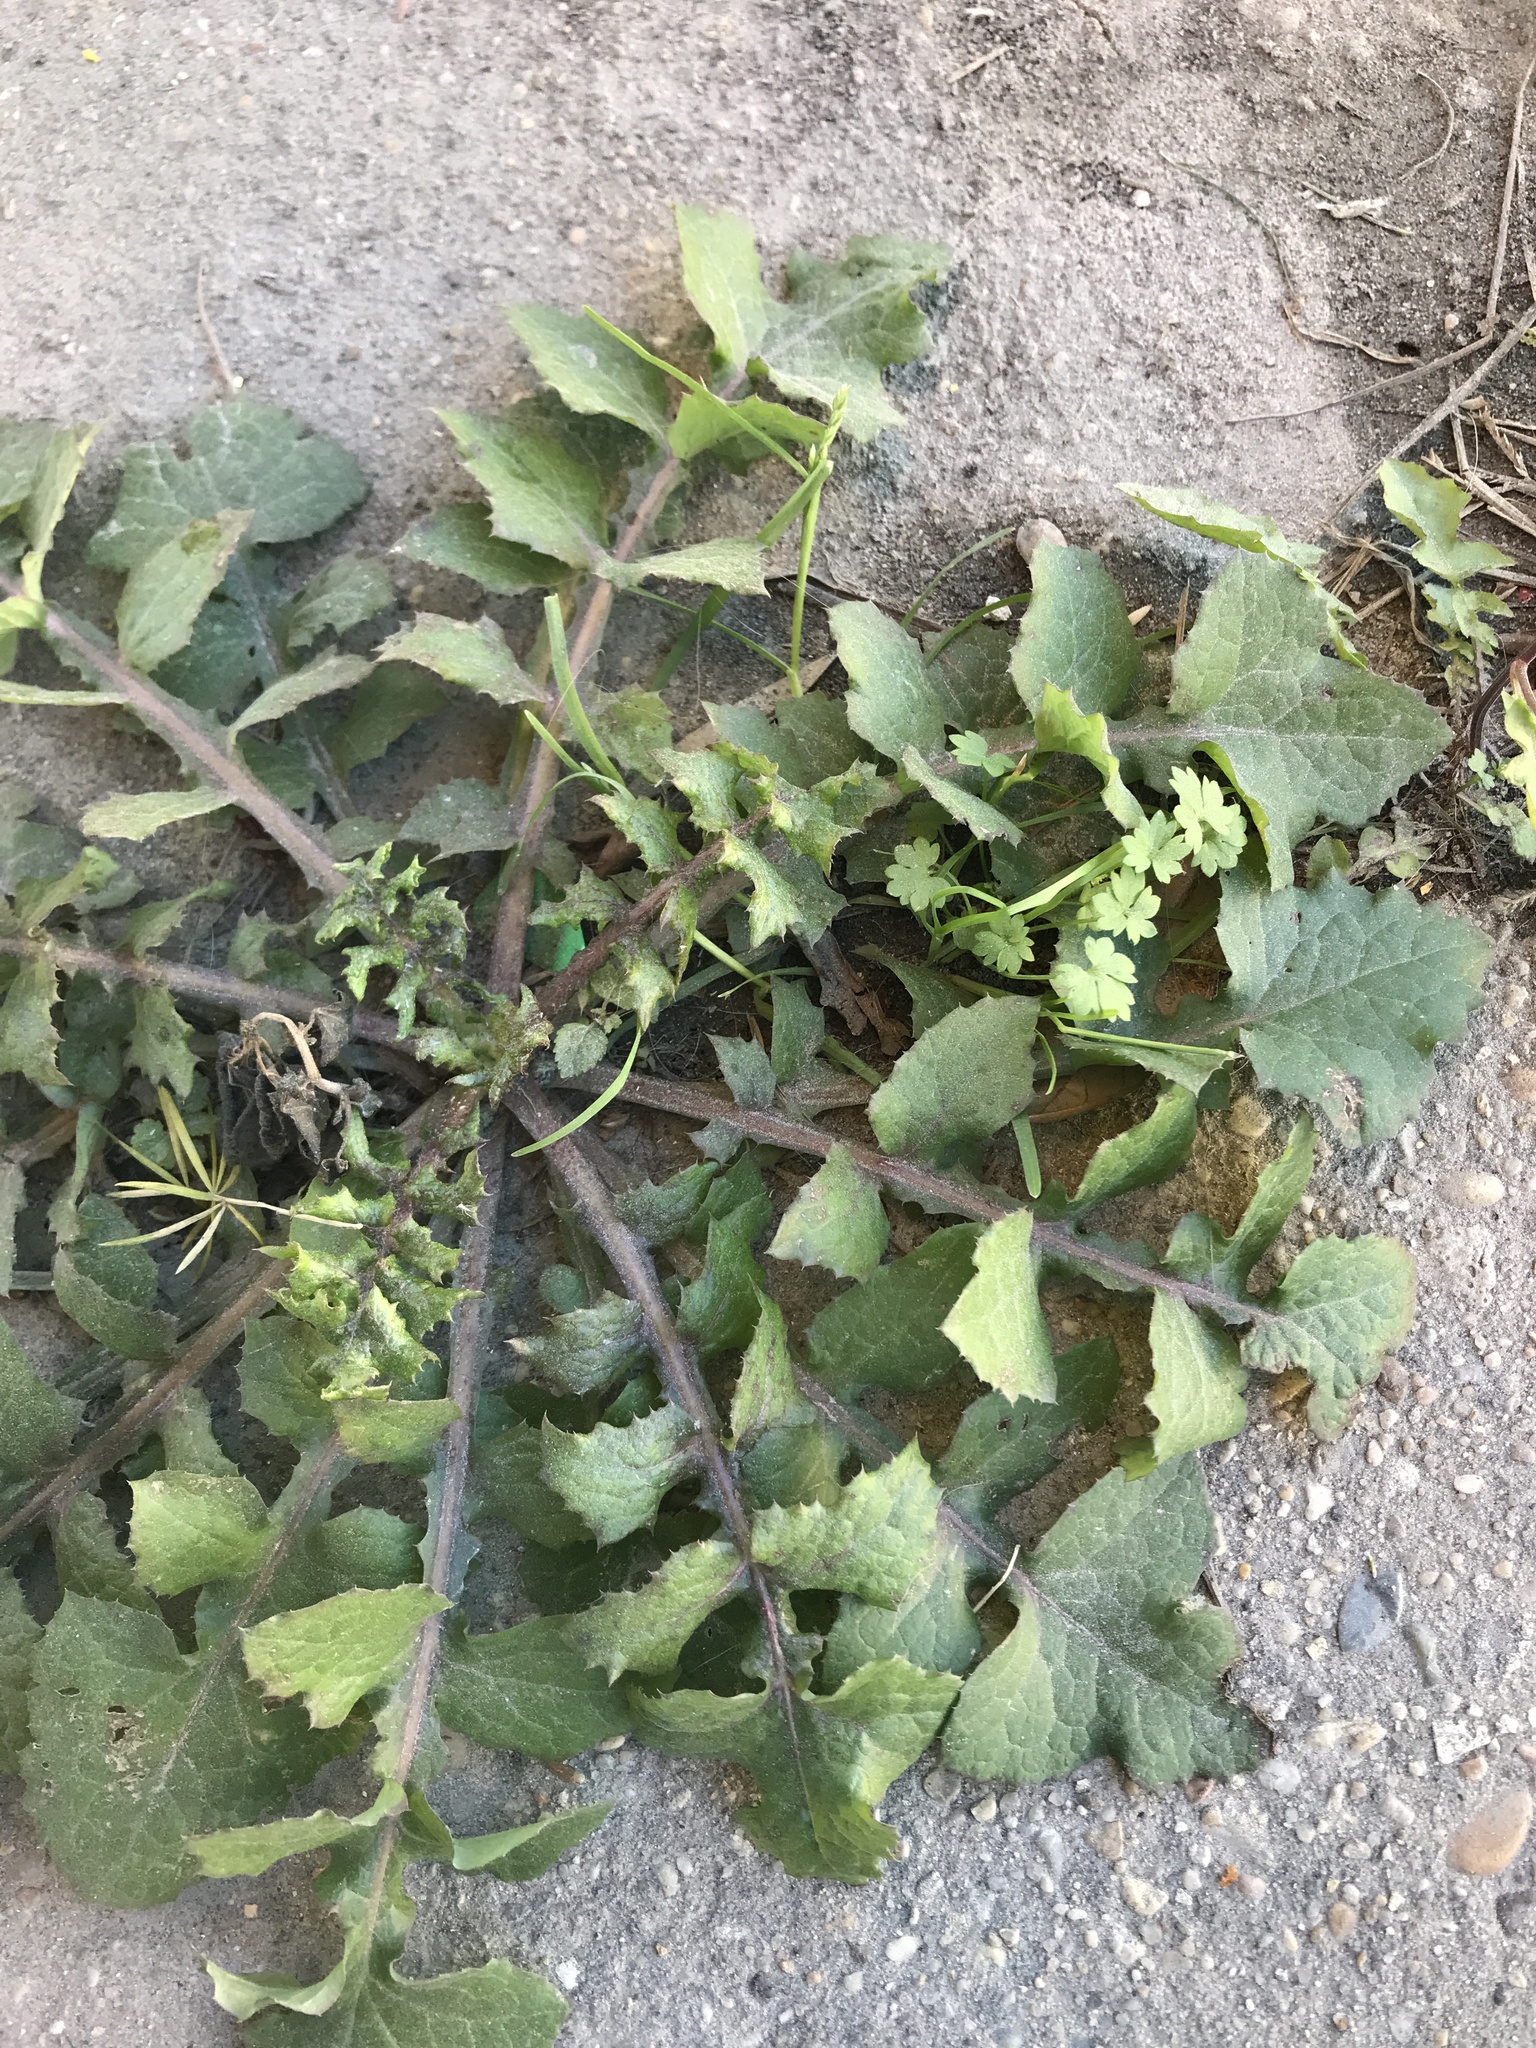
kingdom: Plantae
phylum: Tracheophyta
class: Magnoliopsida
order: Asterales
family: Asteraceae
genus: Sonchus
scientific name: Sonchus oleraceus
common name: Common sowthistle
